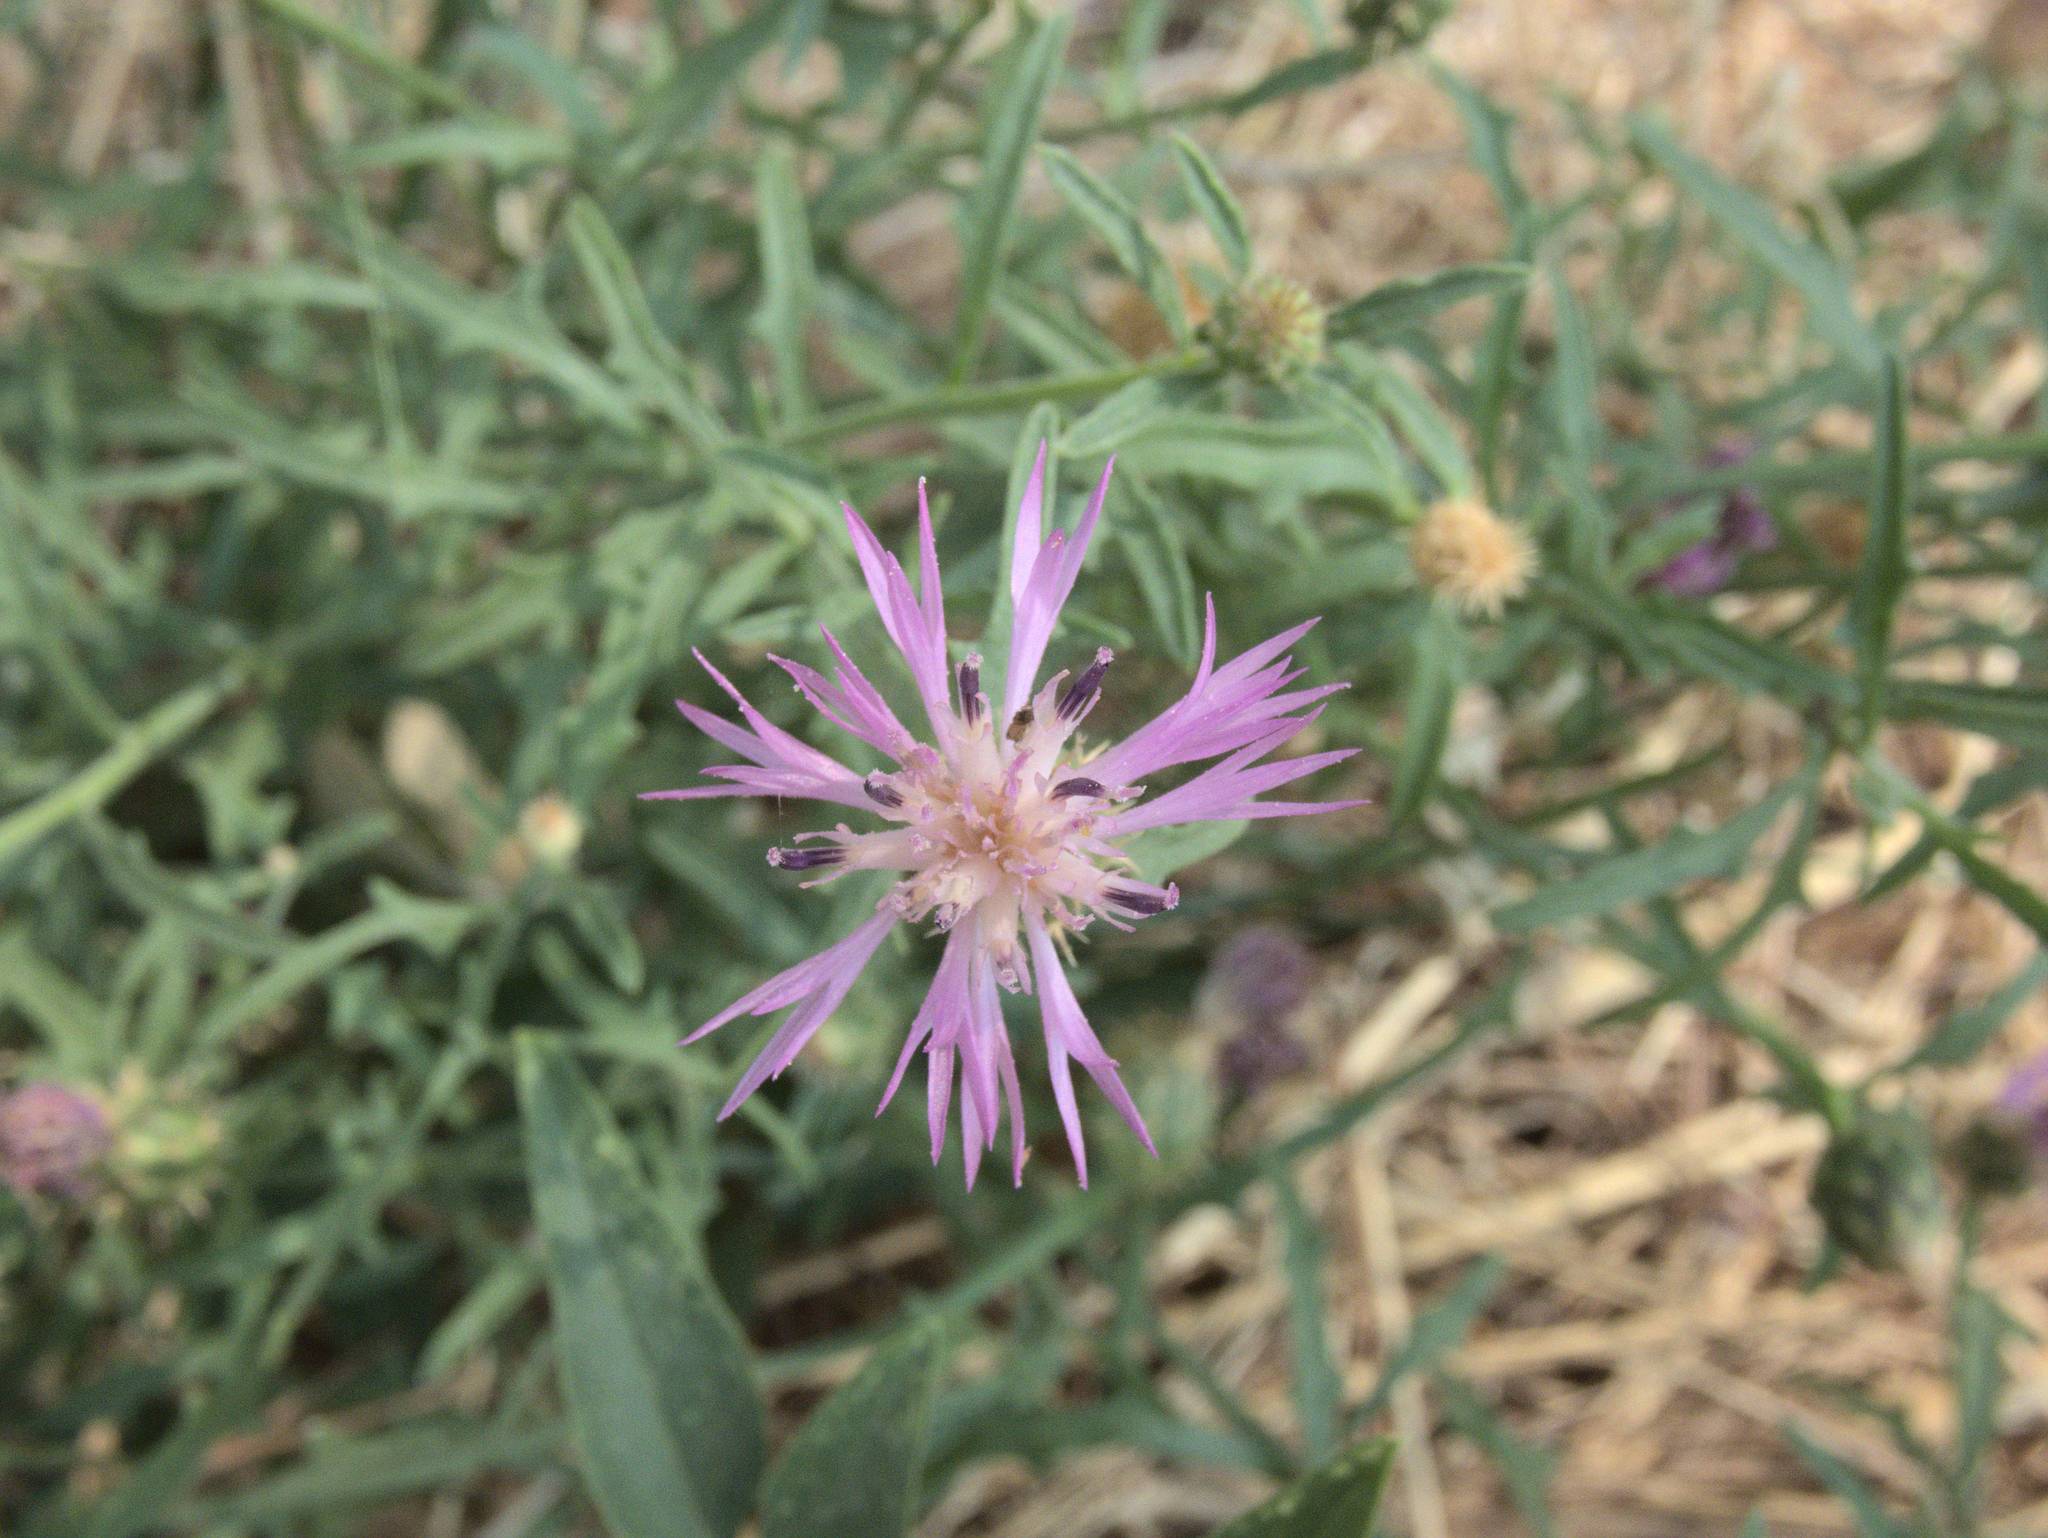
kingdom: Plantae
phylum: Tracheophyta
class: Magnoliopsida
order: Asterales
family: Asteraceae
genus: Centaurea
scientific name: Centaurea aspera
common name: Rough star-thistle
